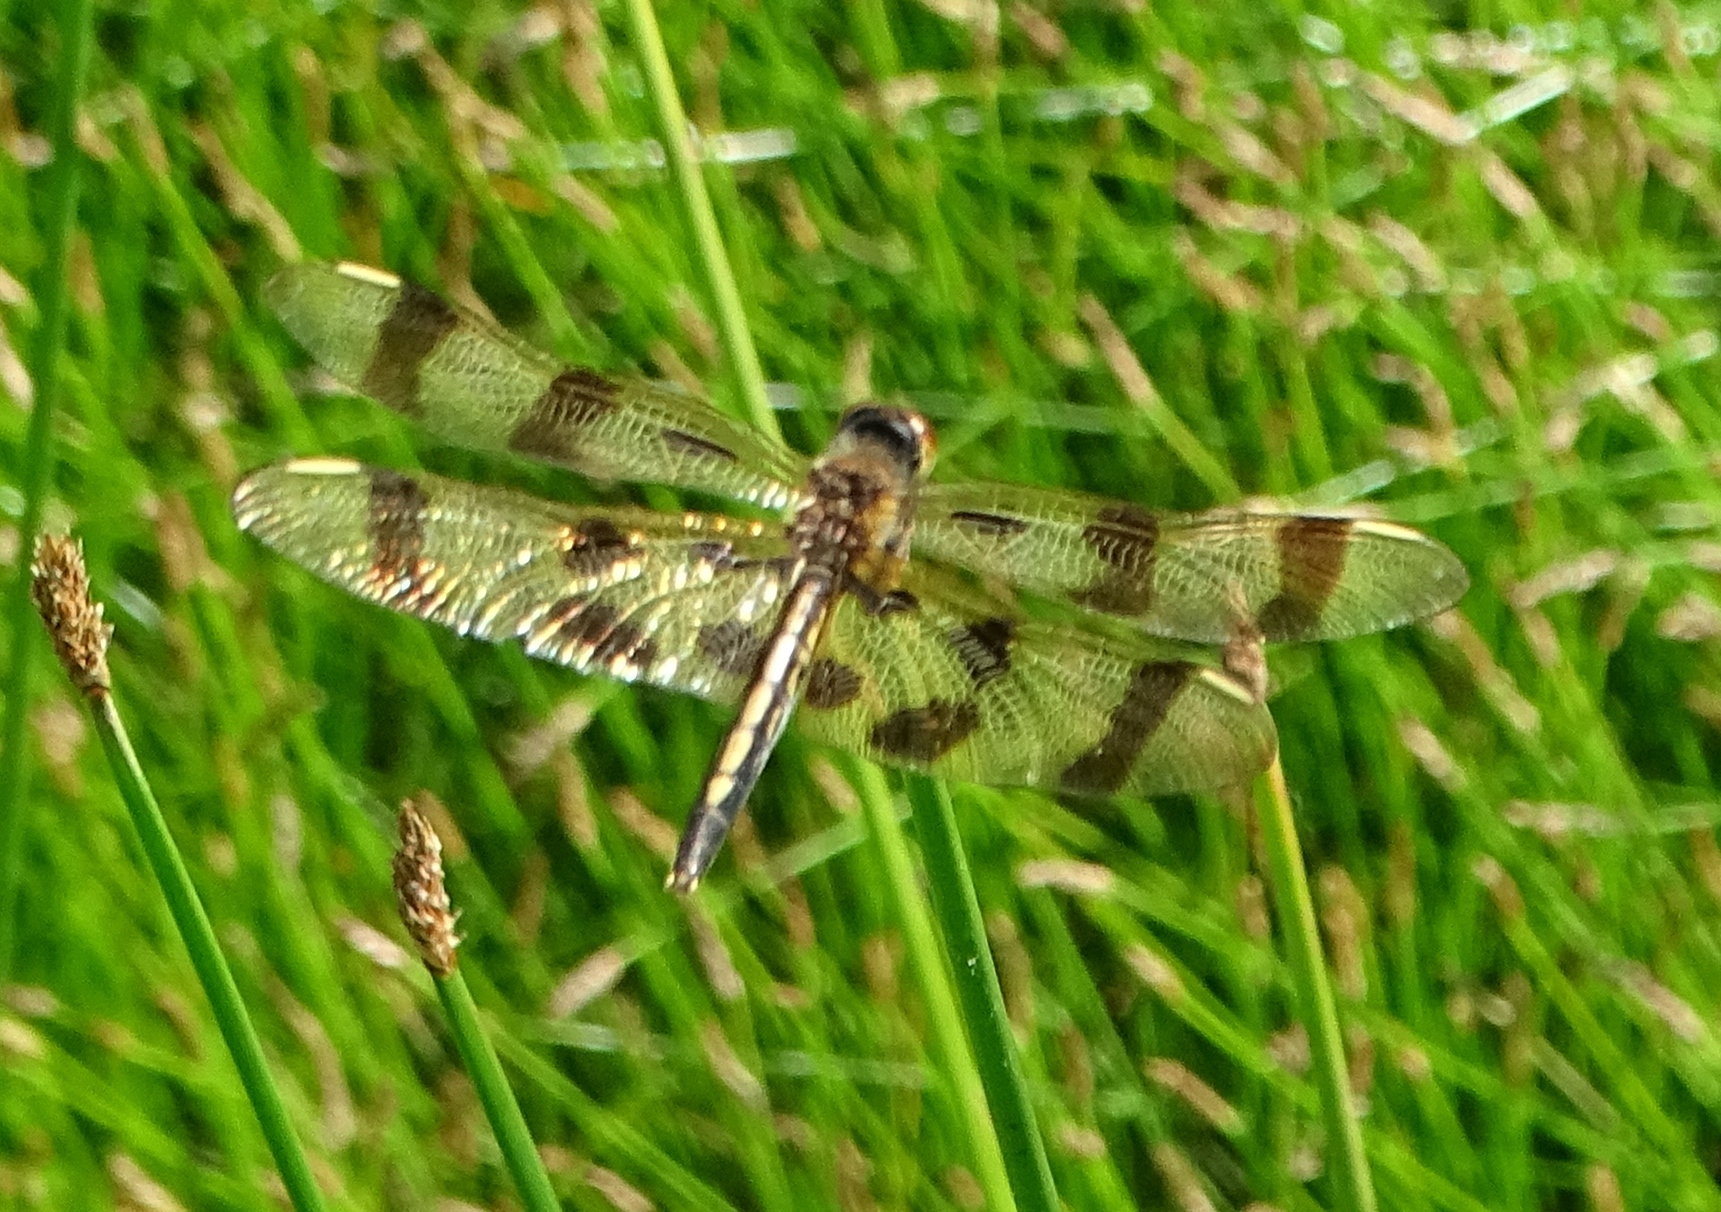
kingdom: Animalia
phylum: Arthropoda
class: Insecta
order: Odonata
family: Libellulidae
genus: Celithemis
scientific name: Celithemis eponina
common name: Halloween pennant
